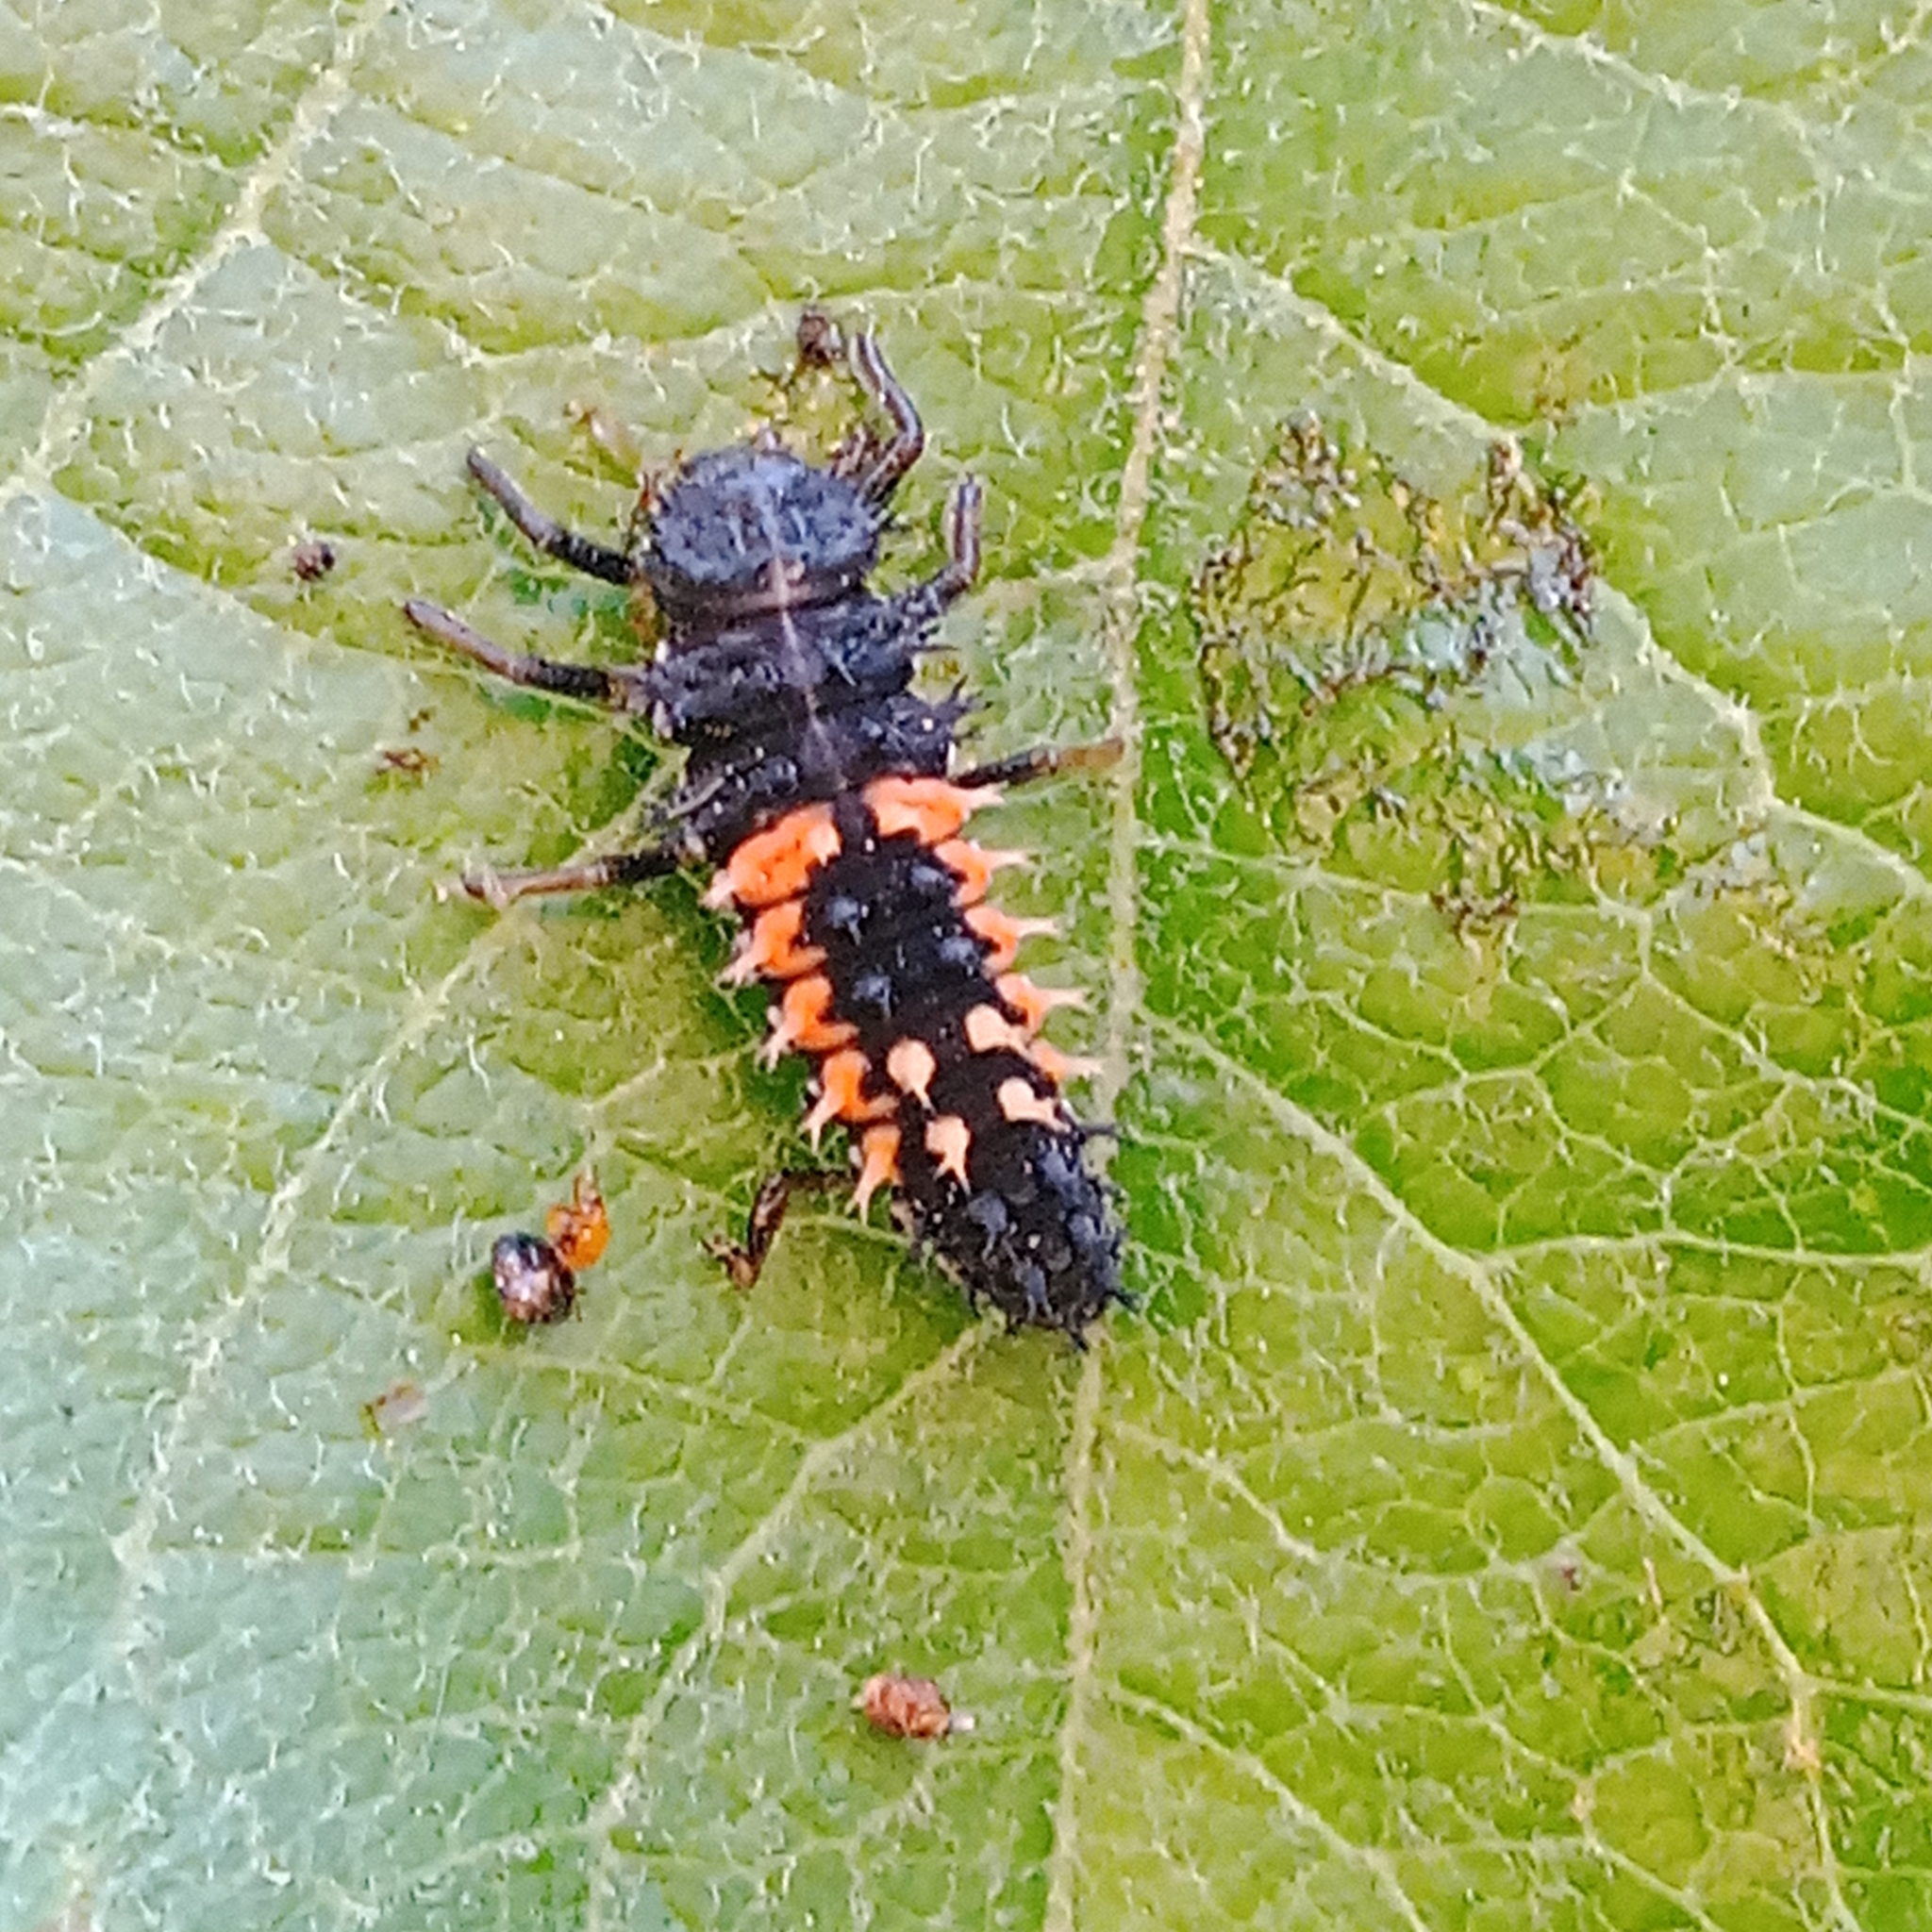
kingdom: Animalia
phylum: Arthropoda
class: Insecta
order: Coleoptera
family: Coccinellidae
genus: Harmonia
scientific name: Harmonia axyridis
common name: Harlequin ladybird
